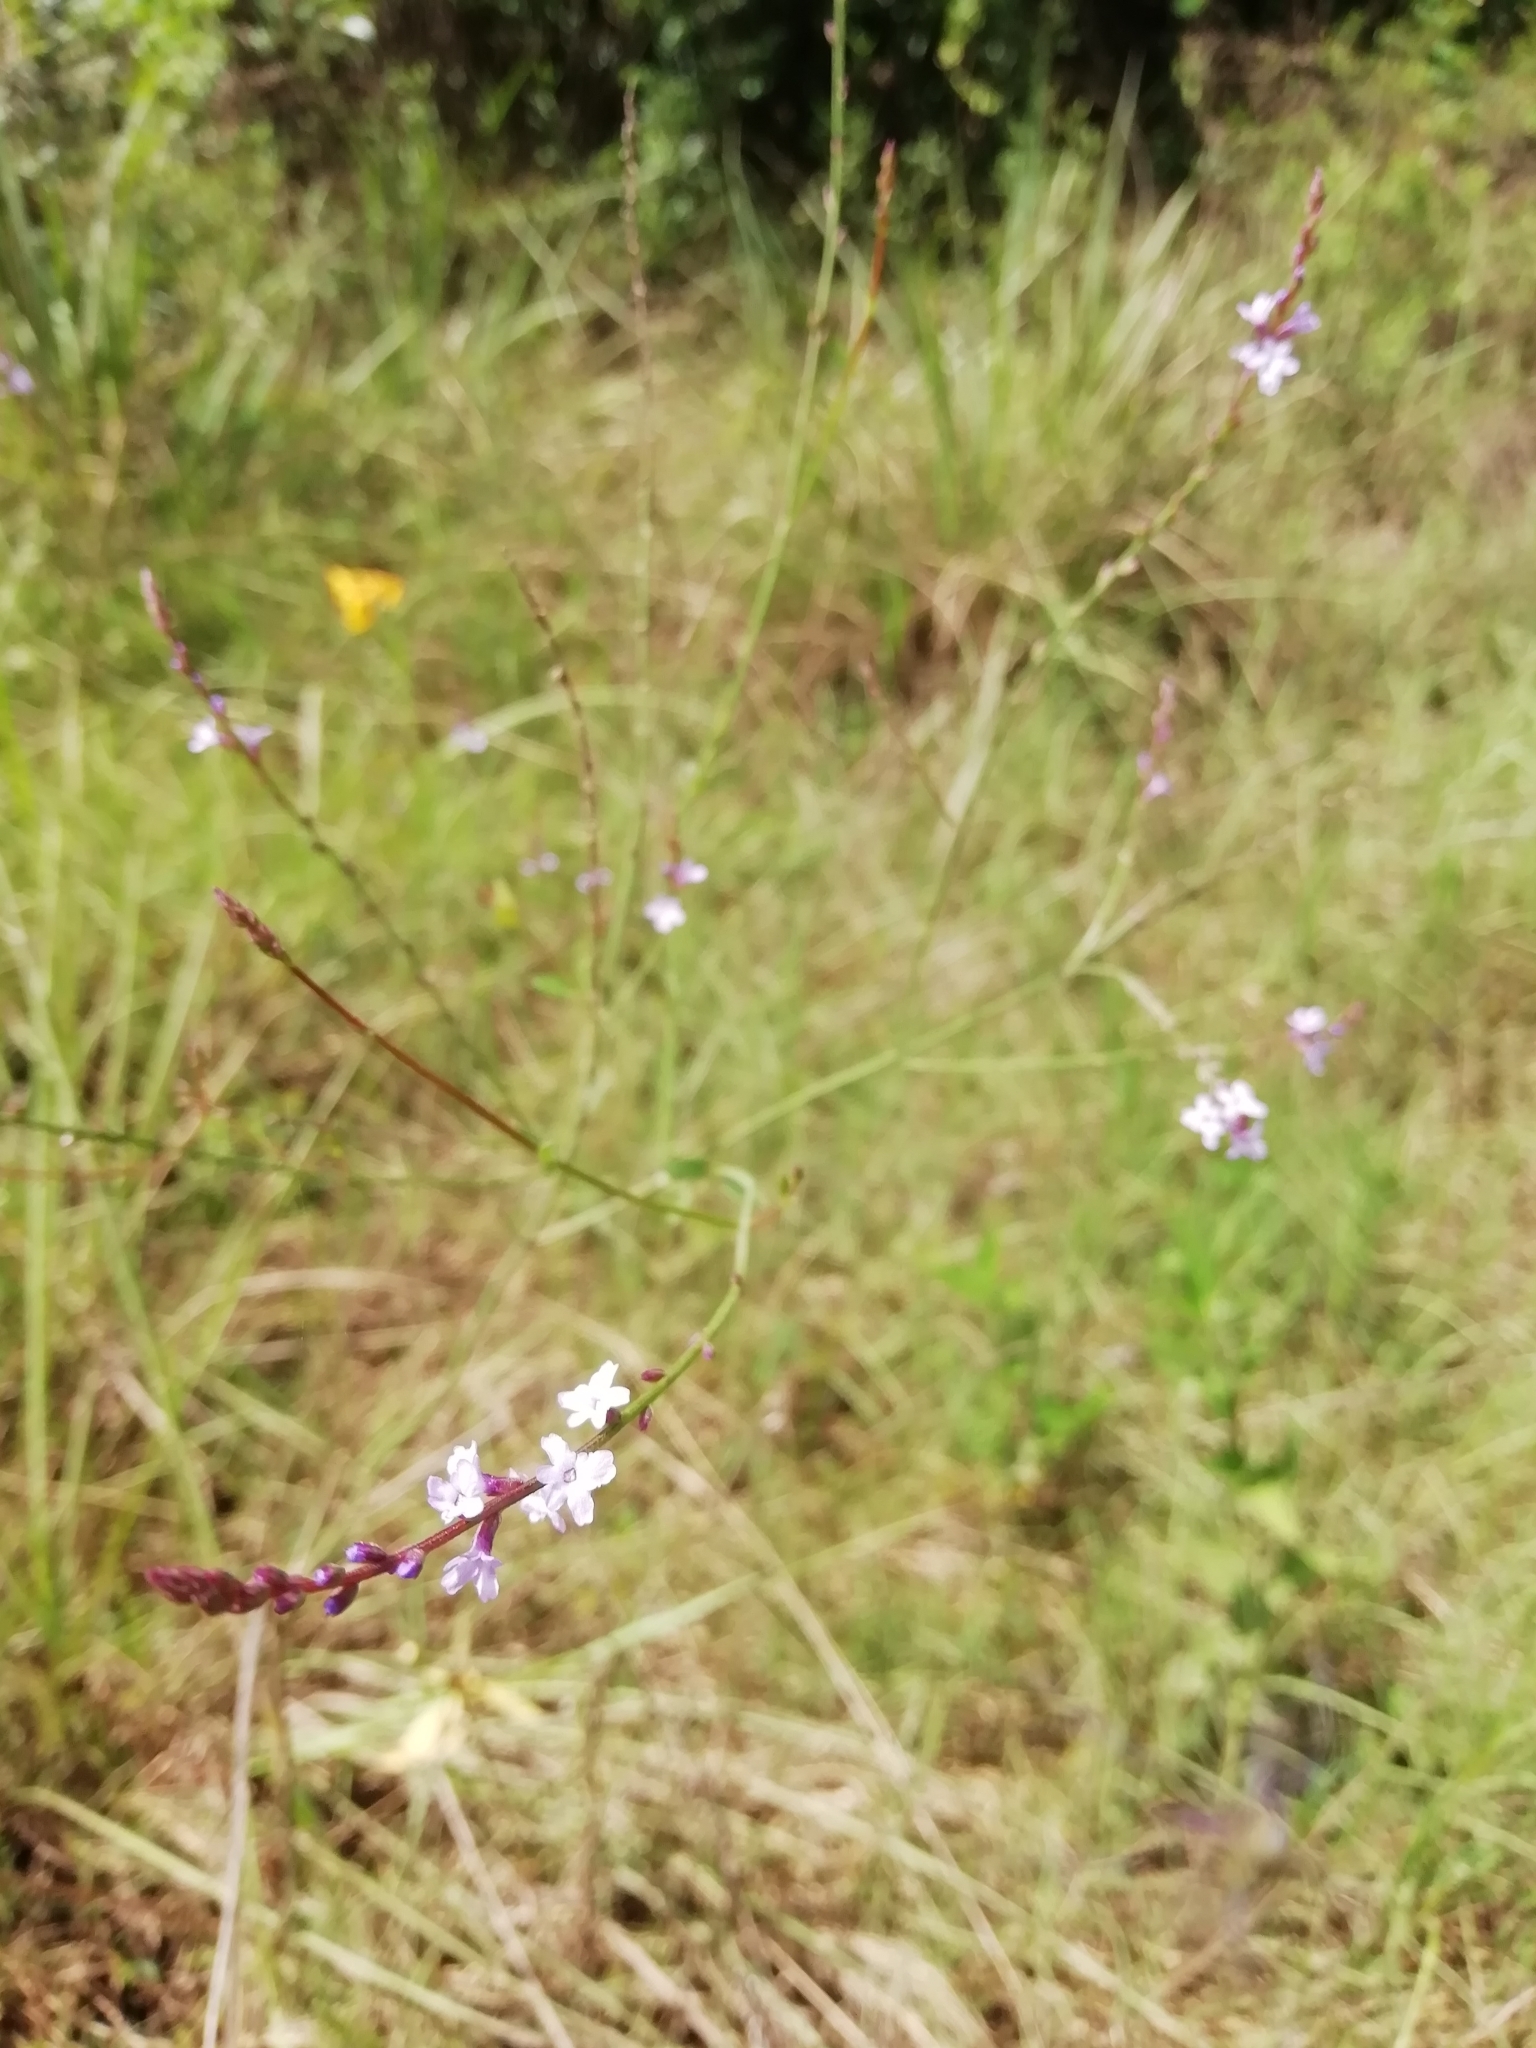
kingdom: Plantae
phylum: Tracheophyta
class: Magnoliopsida
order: Lamiales
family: Verbenaceae
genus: Verbena
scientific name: Verbena montevidensis
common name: Uruguayan vervain
